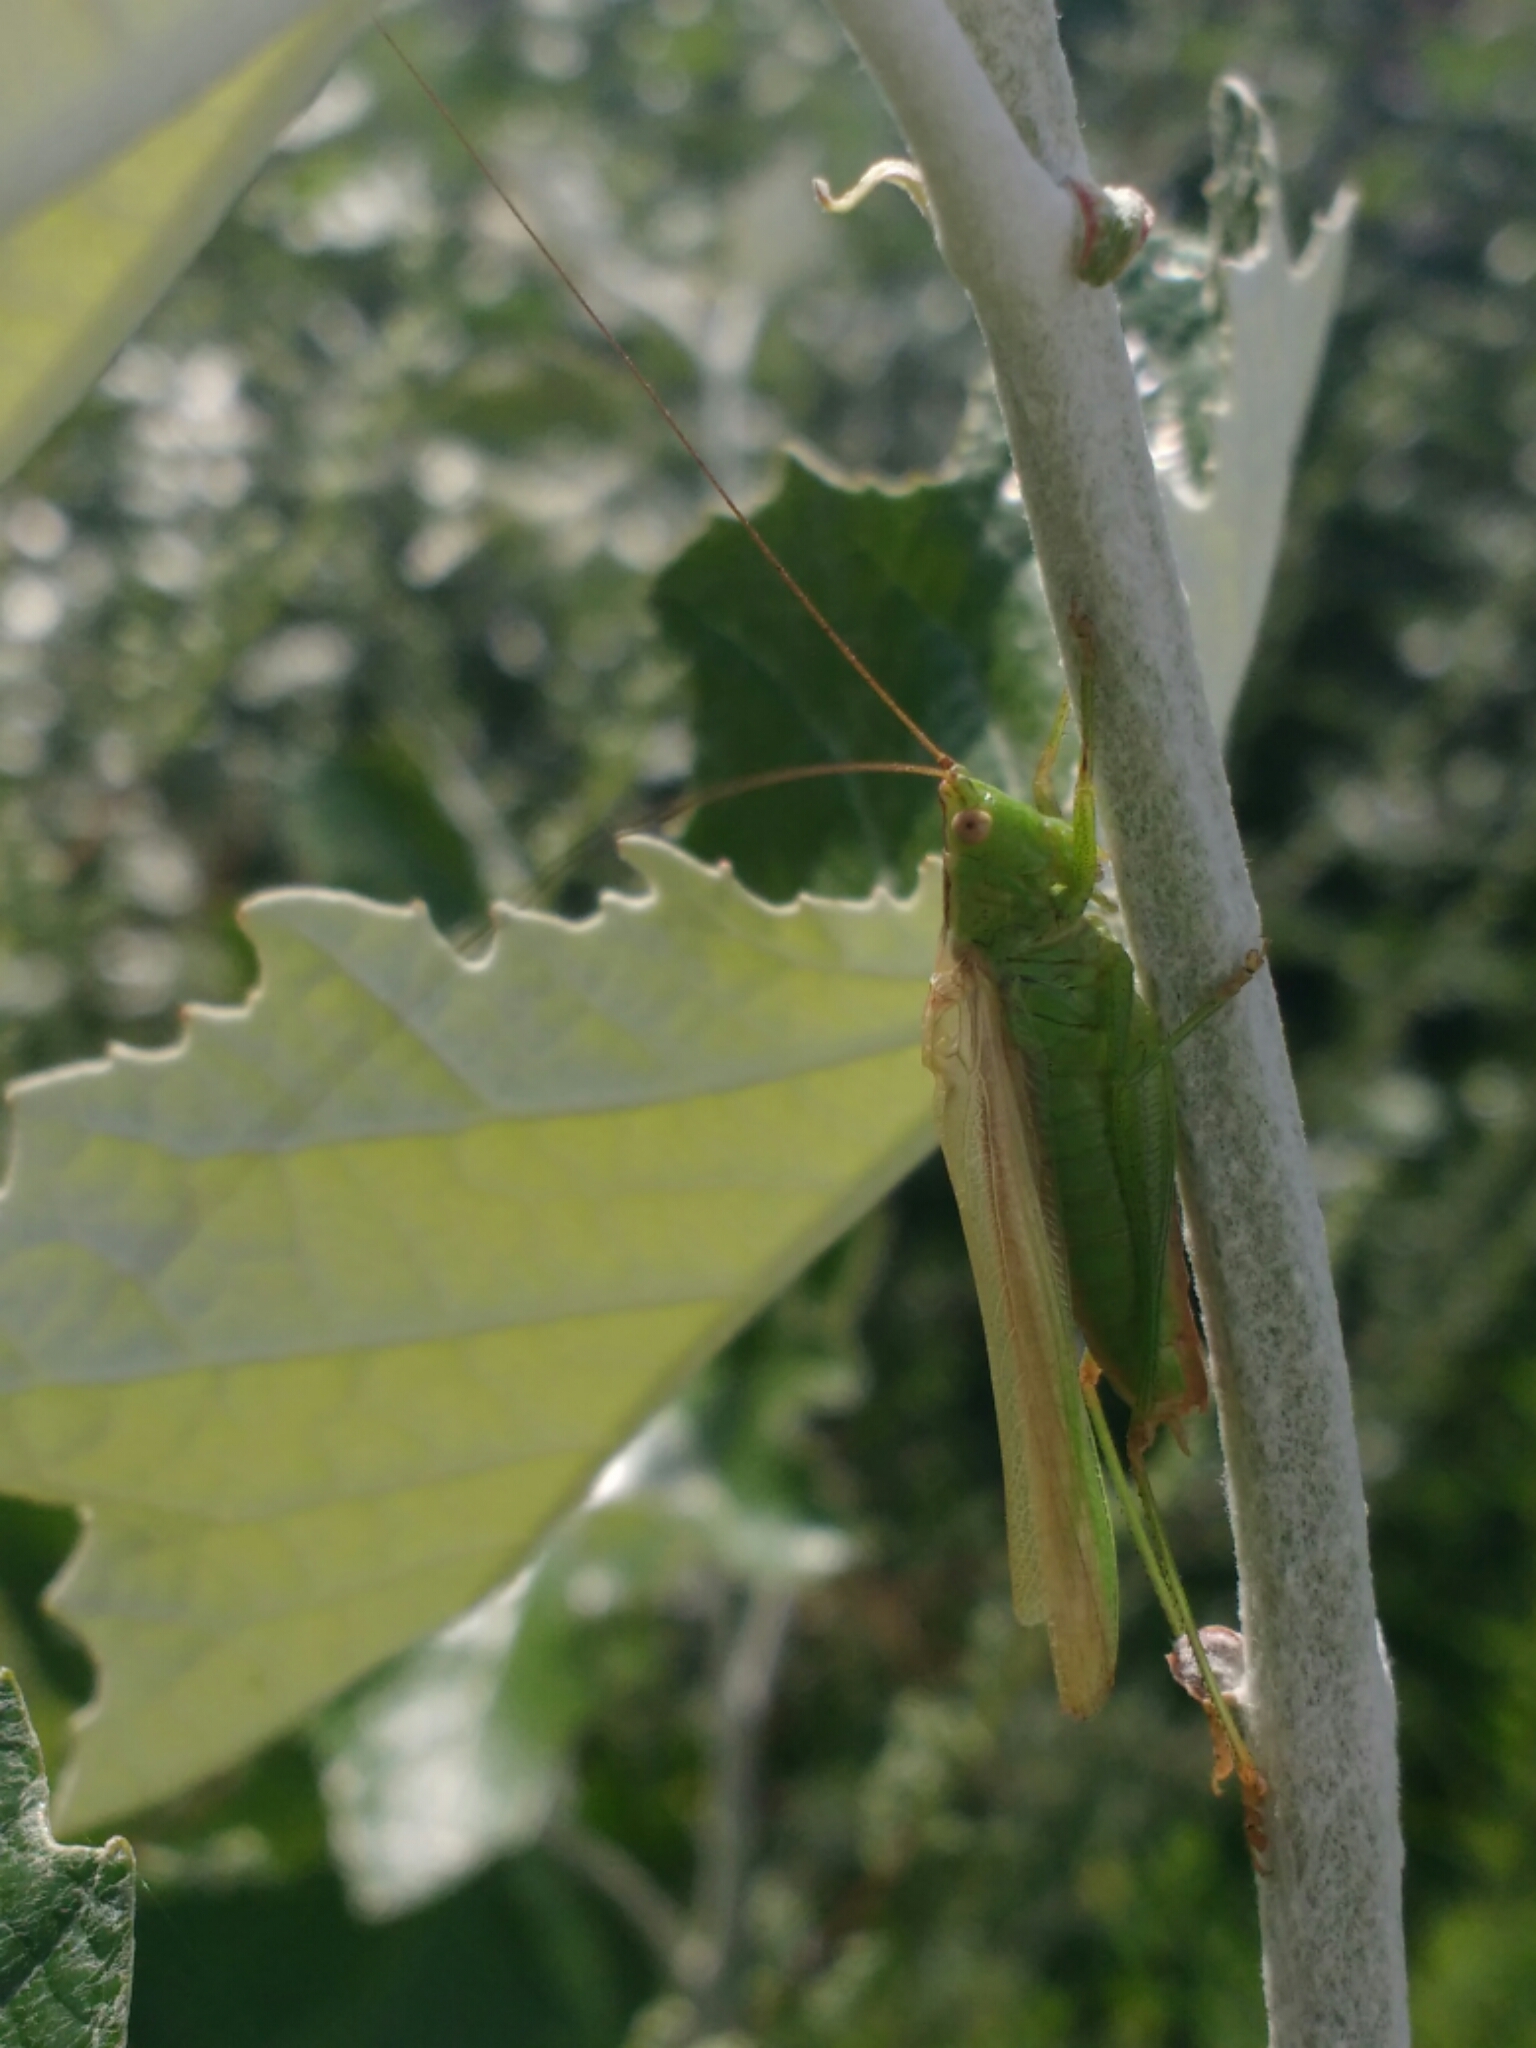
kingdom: Animalia
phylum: Arthropoda
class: Insecta
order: Orthoptera
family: Tettigoniidae
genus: Conocephalus
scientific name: Conocephalus fuscus
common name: Long-winged conehead
